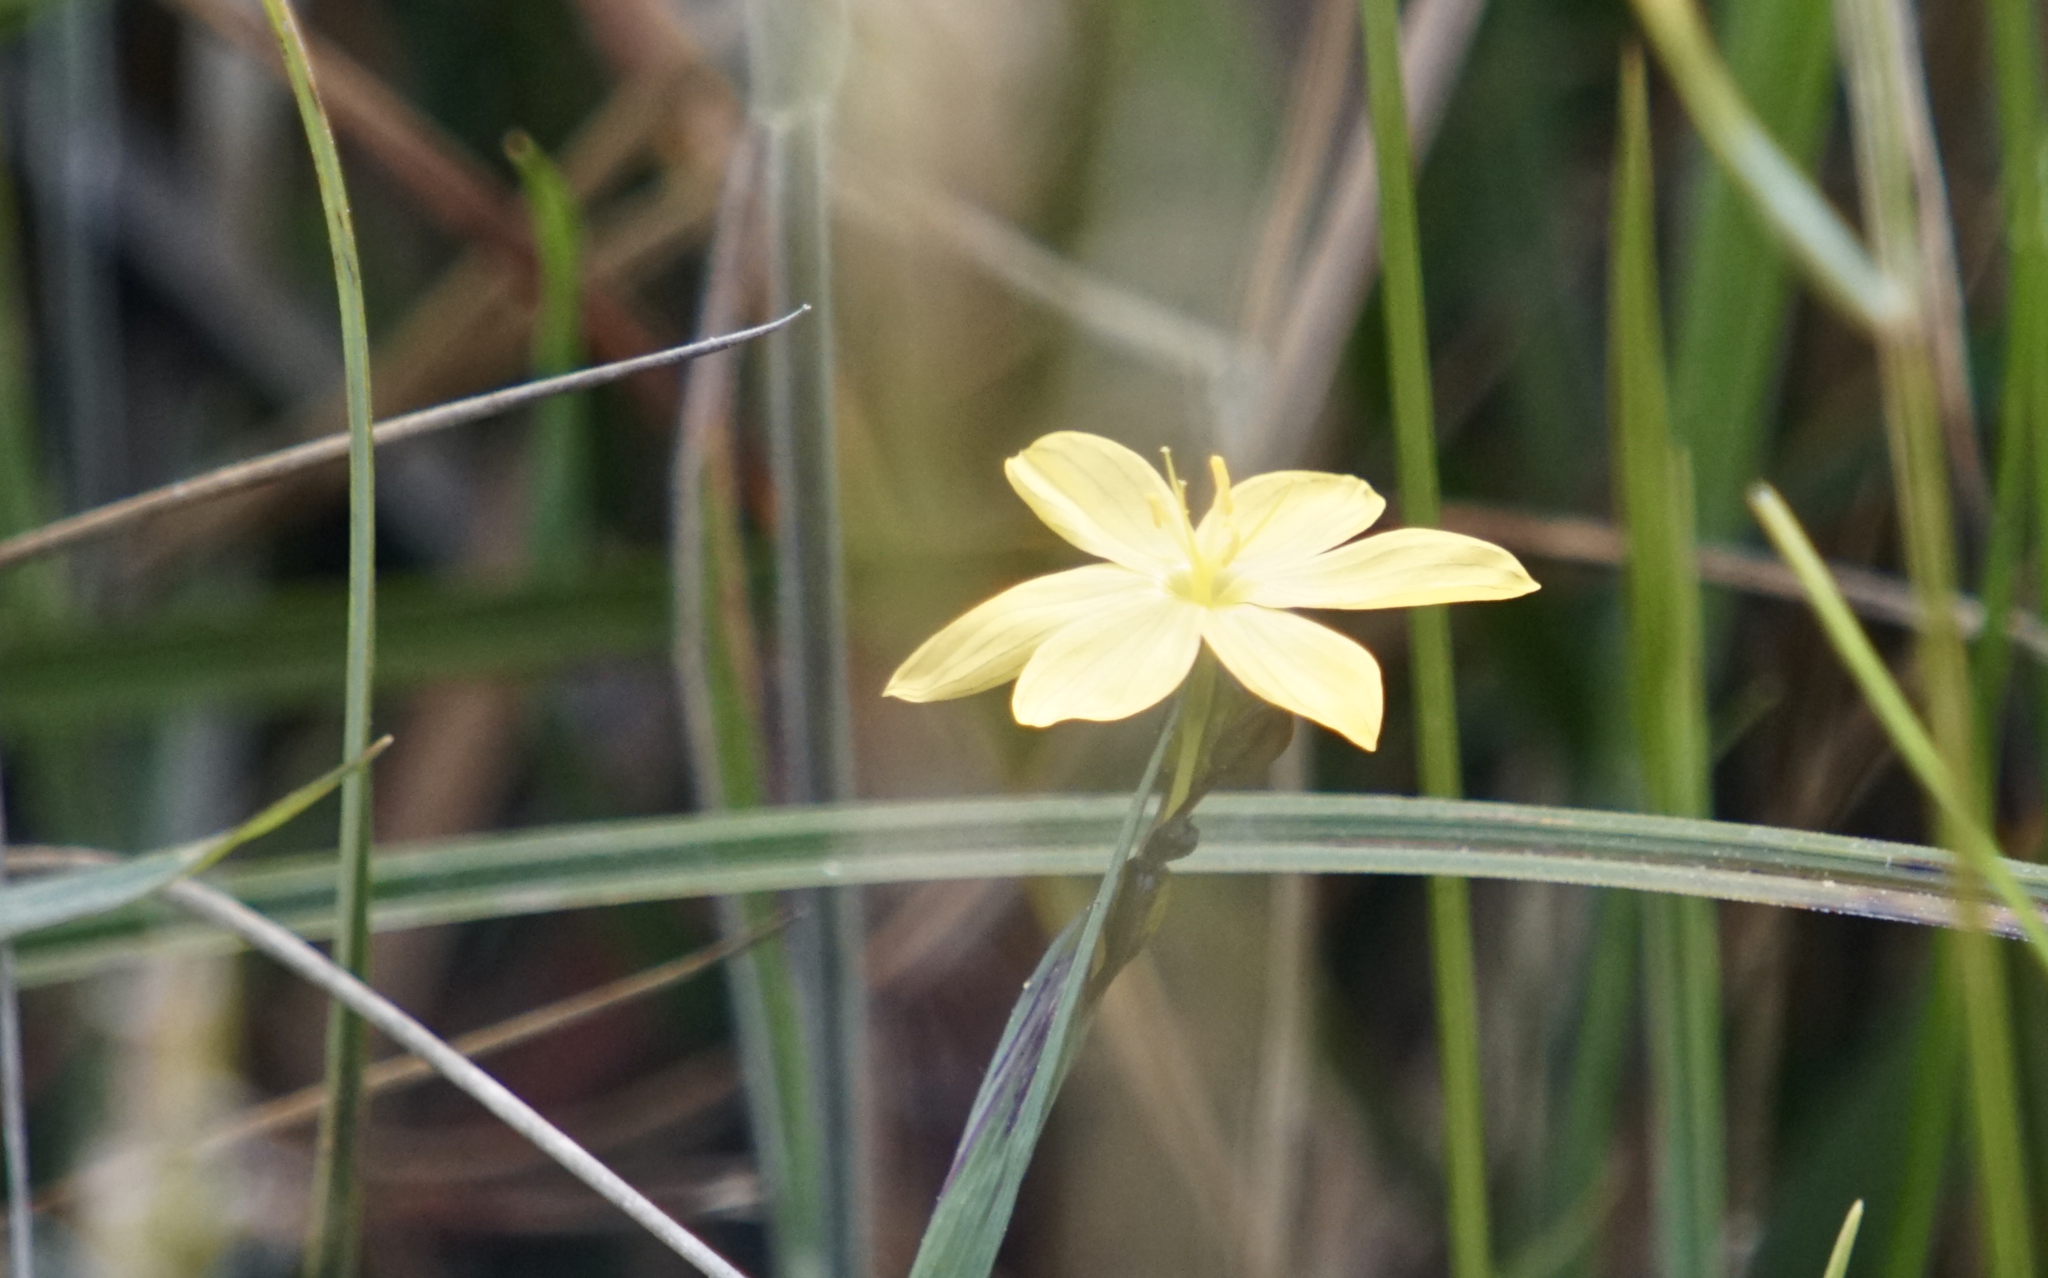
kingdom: Plantae
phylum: Tracheophyta
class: Liliopsida
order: Asparagales
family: Iridaceae
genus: Sisyrinchium
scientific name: Sisyrinchium californicum
